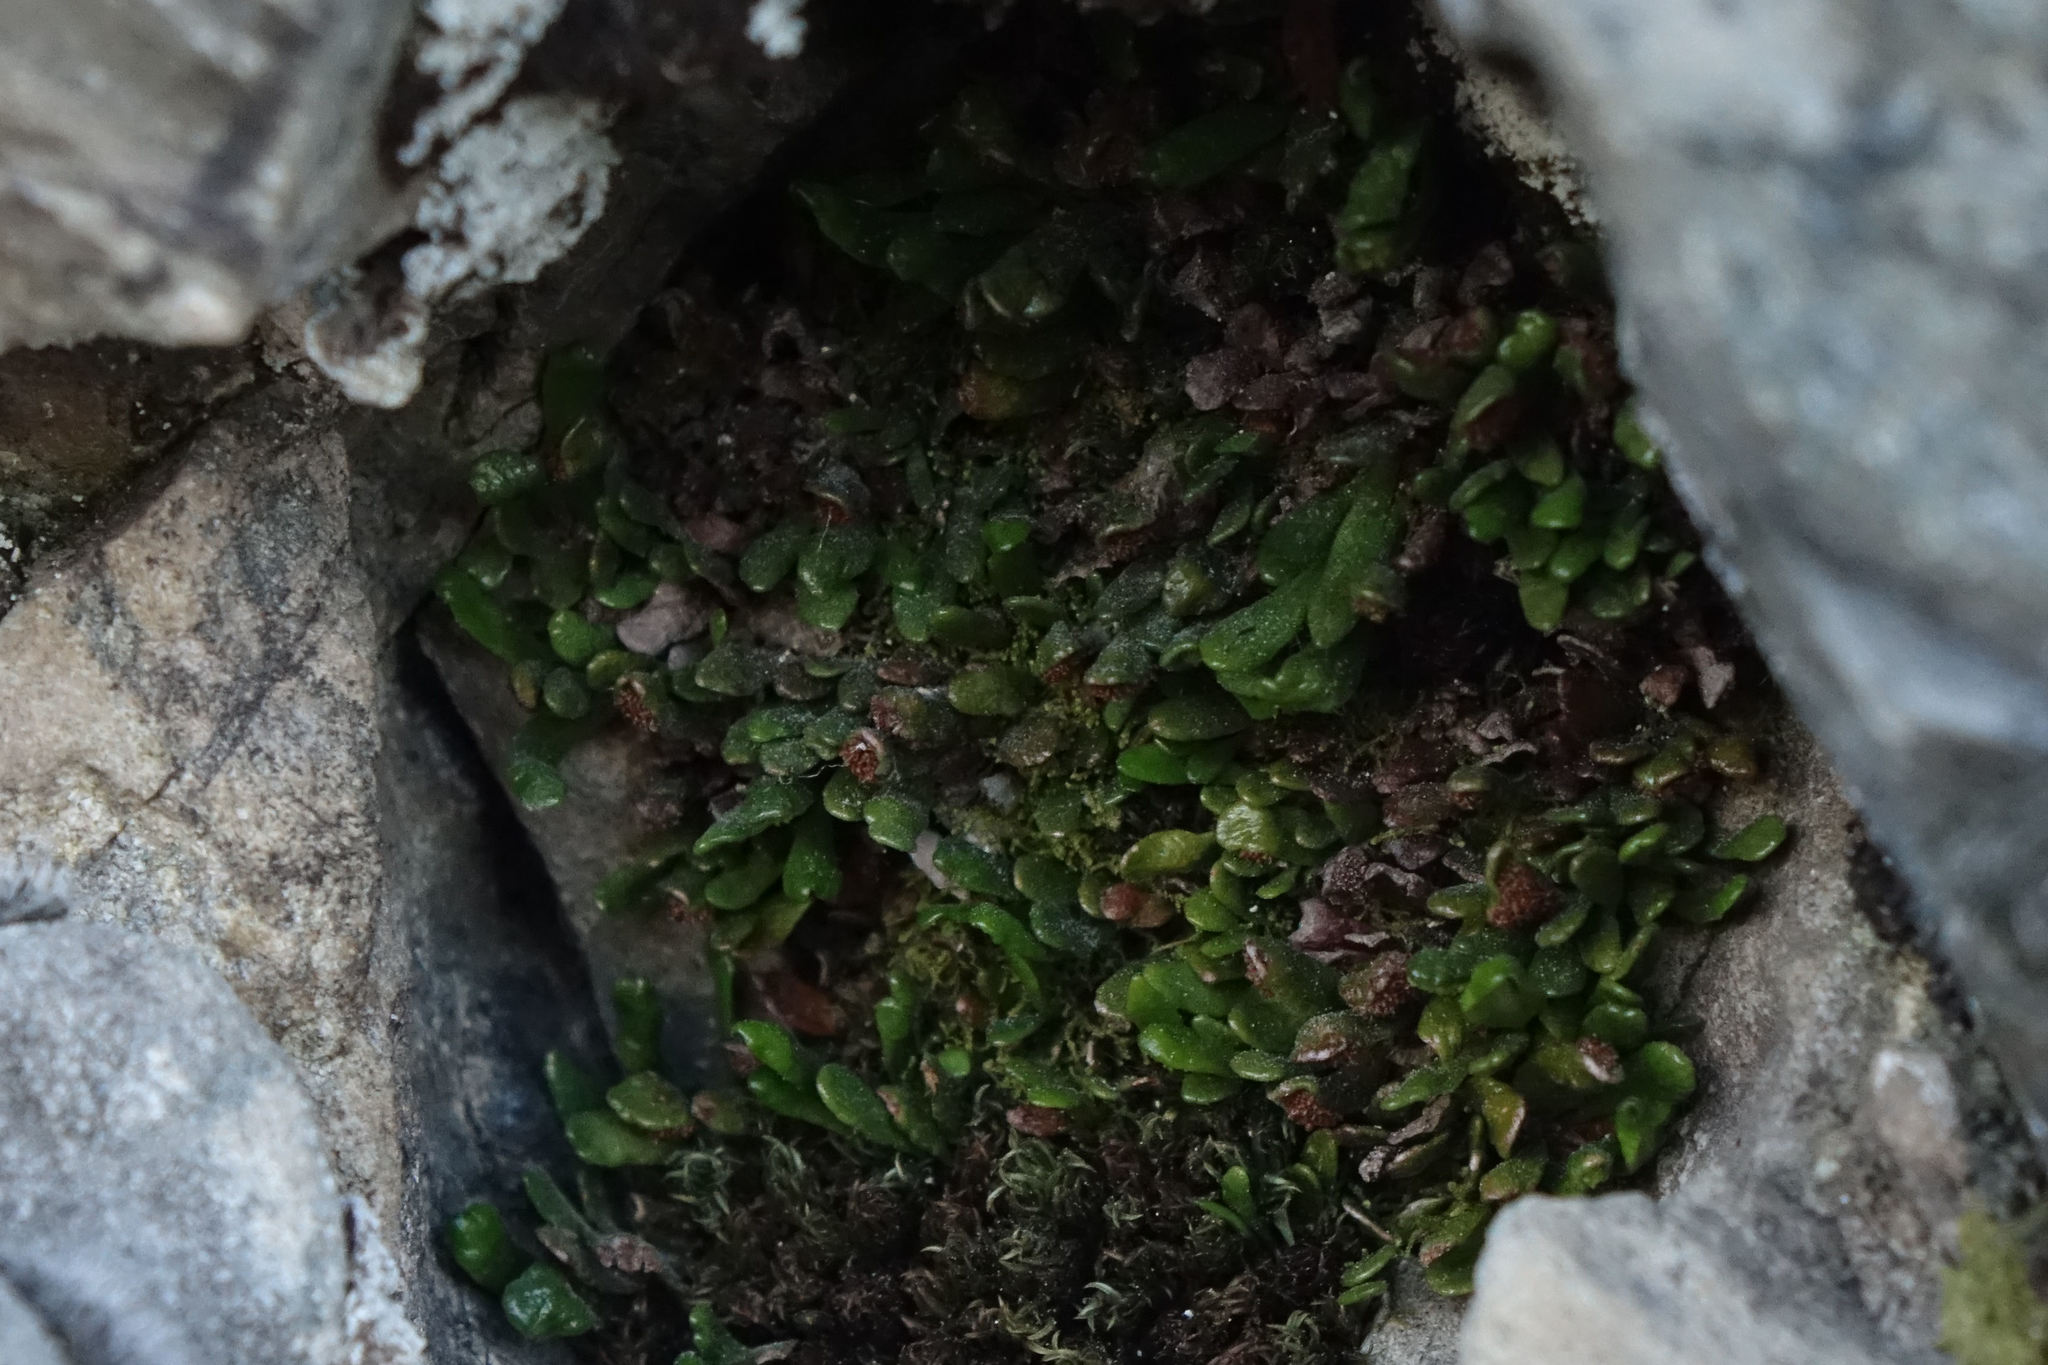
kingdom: Plantae
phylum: Tracheophyta
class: Polypodiopsida
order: Polypodiales
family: Polypodiaceae
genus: Notogrammitis
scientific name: Notogrammitis crassior
